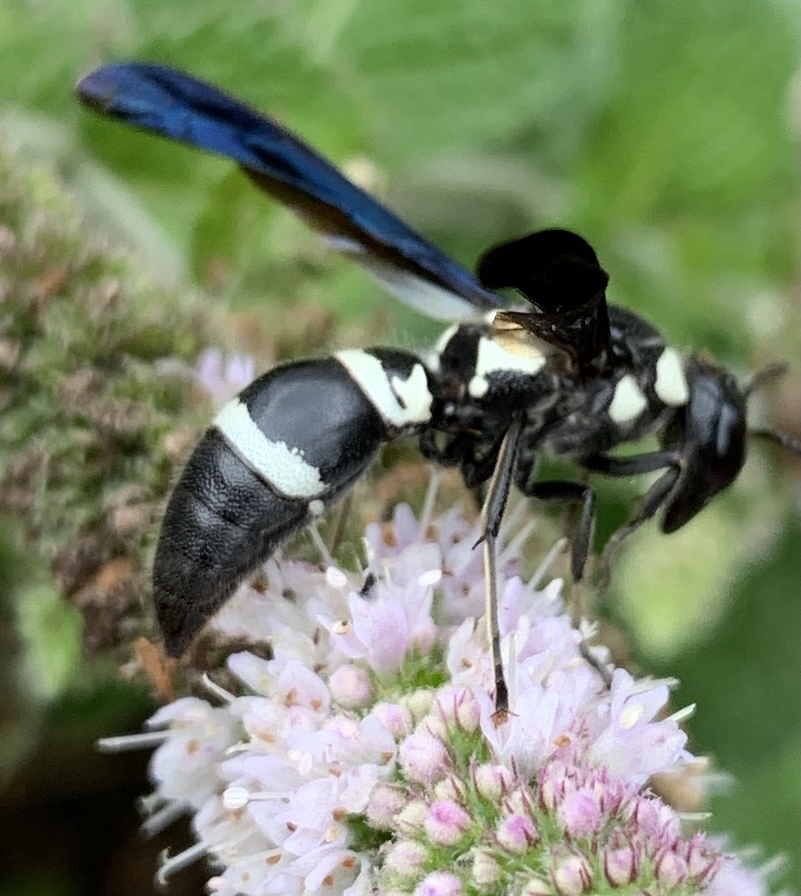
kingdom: Animalia
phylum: Arthropoda
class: Insecta
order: Hymenoptera
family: Eumenidae
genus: Pseudodynerus
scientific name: Pseudodynerus quadrisectus
